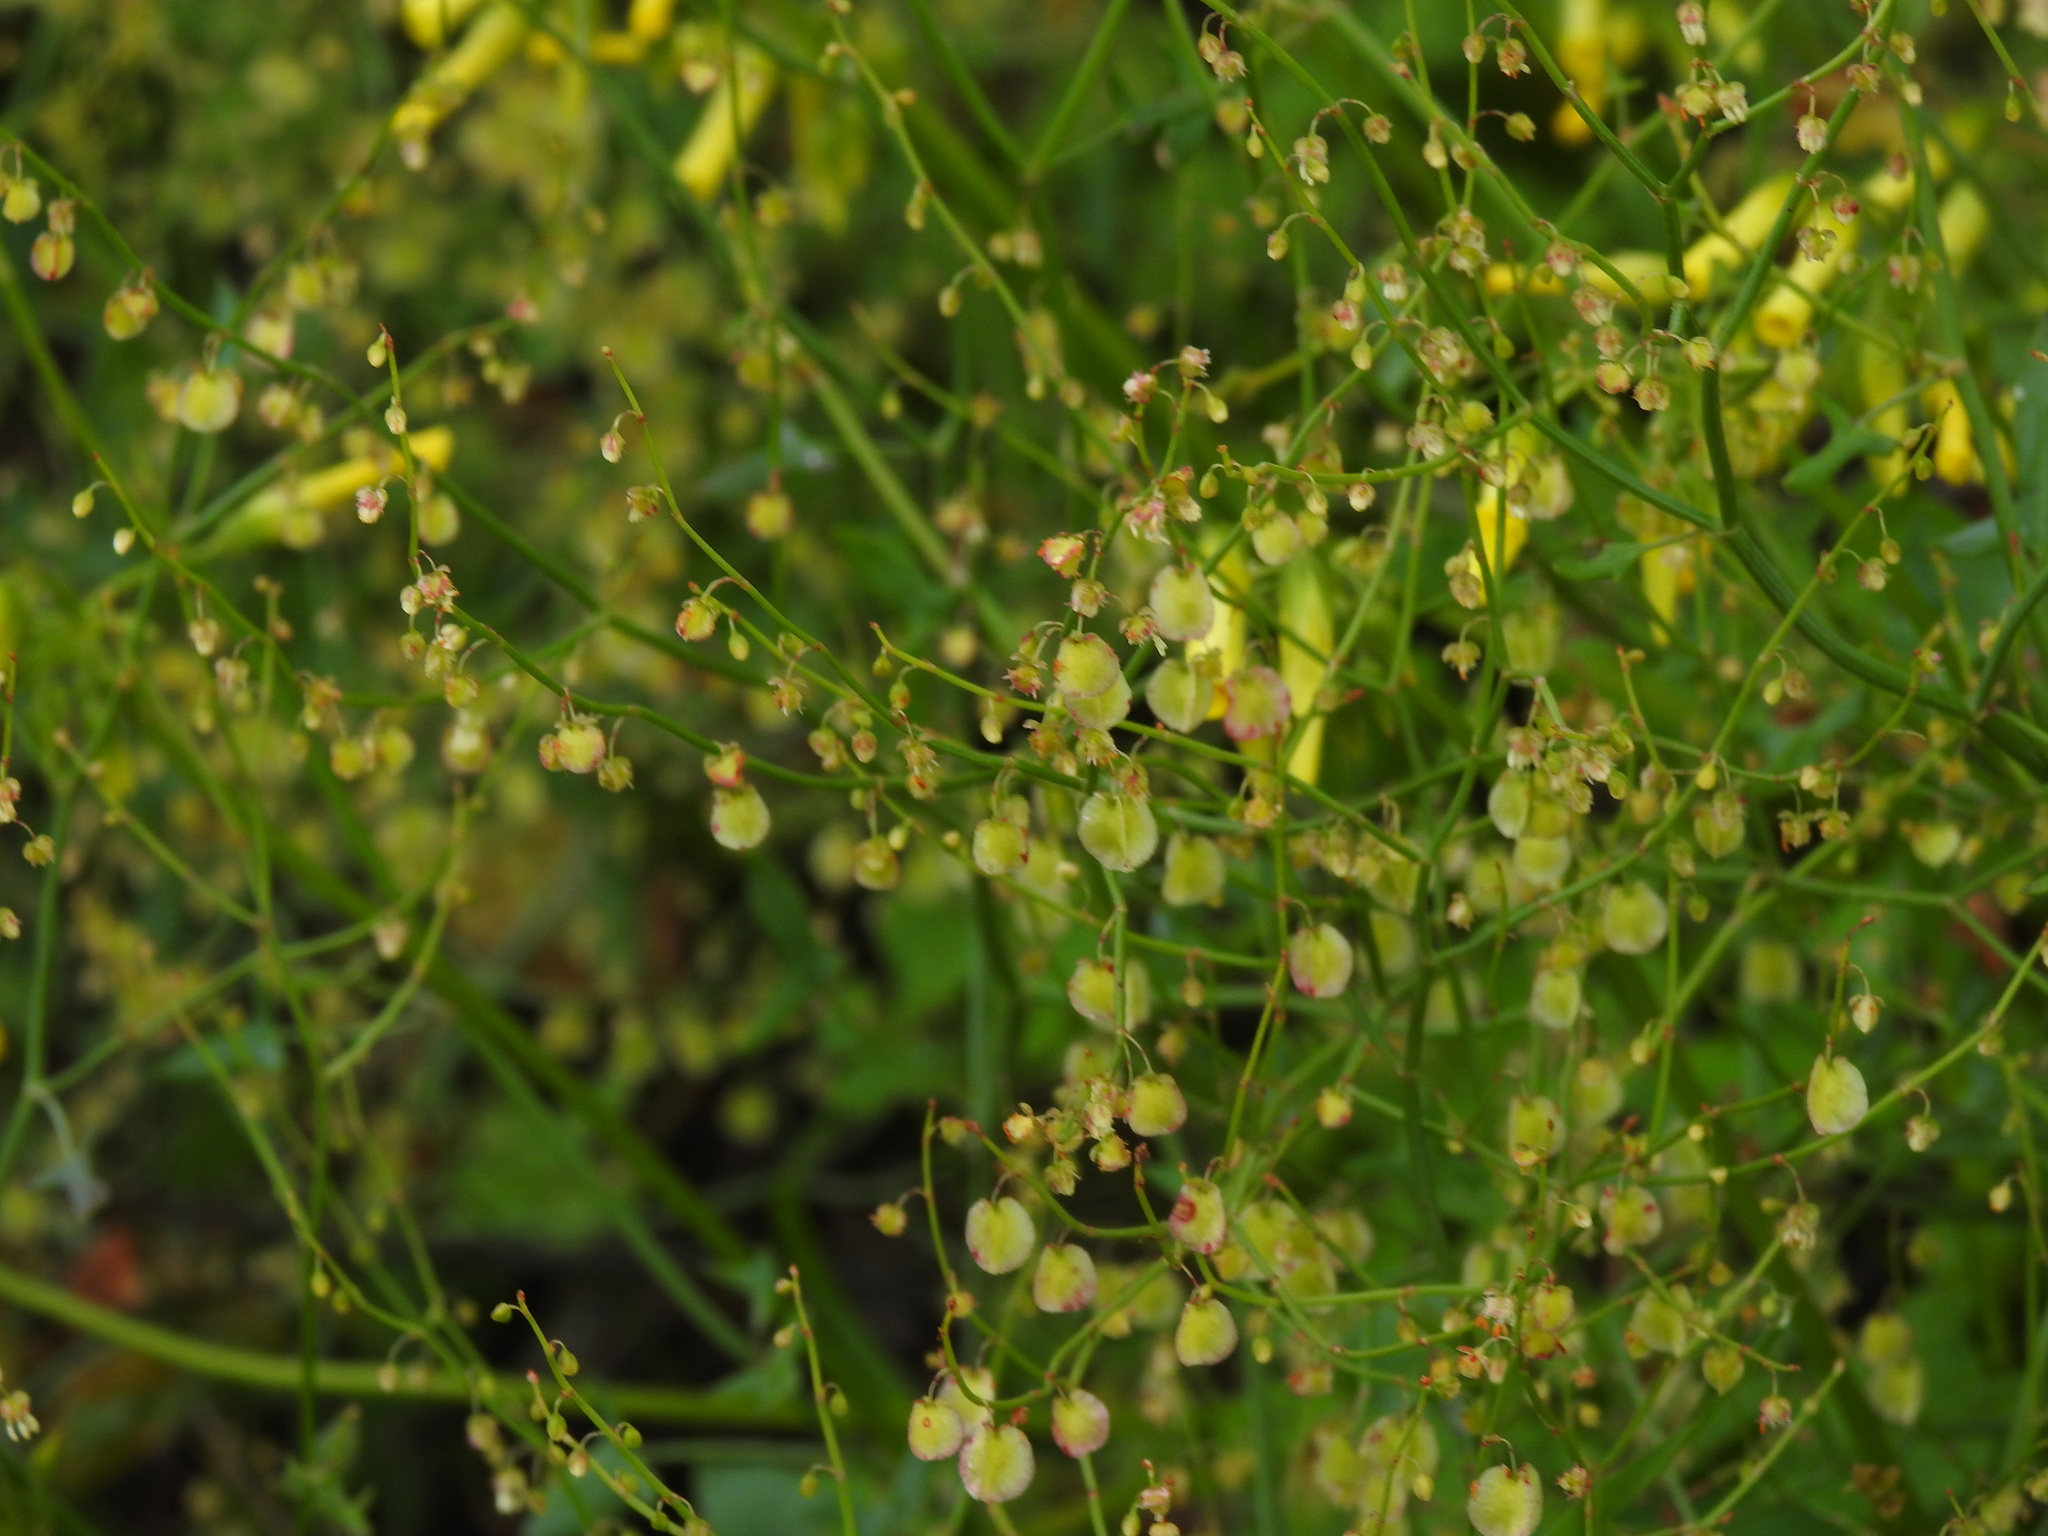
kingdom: Plantae
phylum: Tracheophyta
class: Magnoliopsida
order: Caryophyllales
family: Polygonaceae
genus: Rumex
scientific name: Rumex induratus
